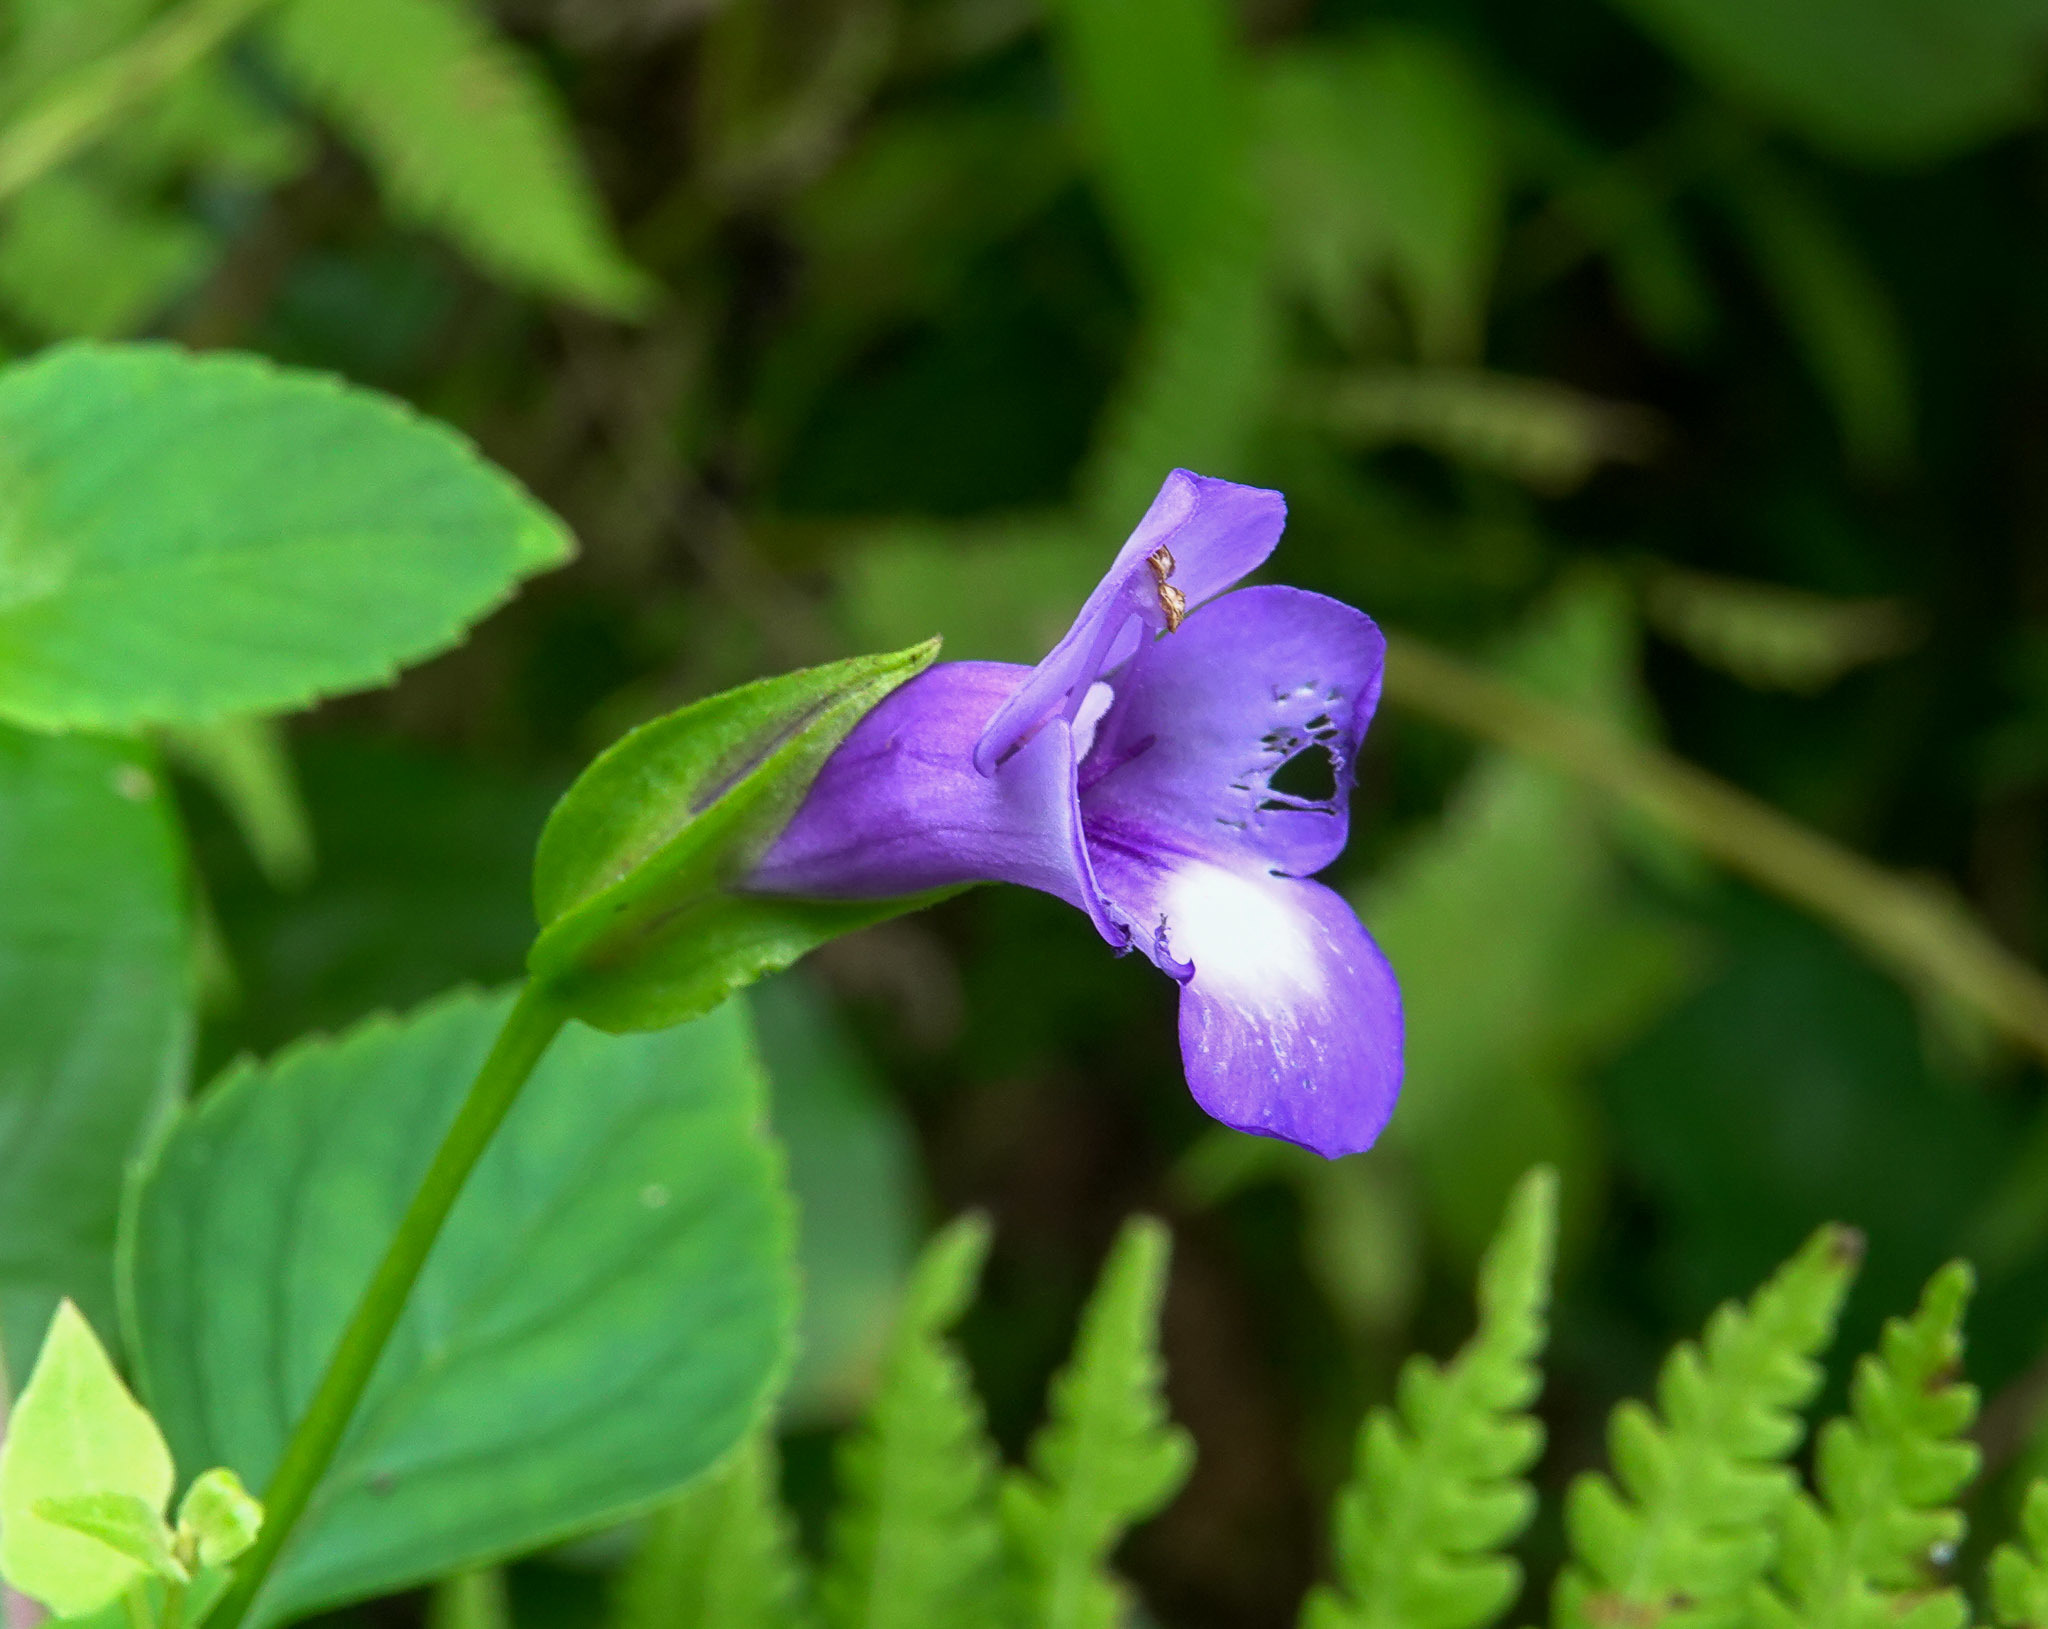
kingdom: Plantae
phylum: Tracheophyta
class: Magnoliopsida
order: Lamiales
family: Linderniaceae
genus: Torenia
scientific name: Torenia asiatica
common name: Wishbone flower
